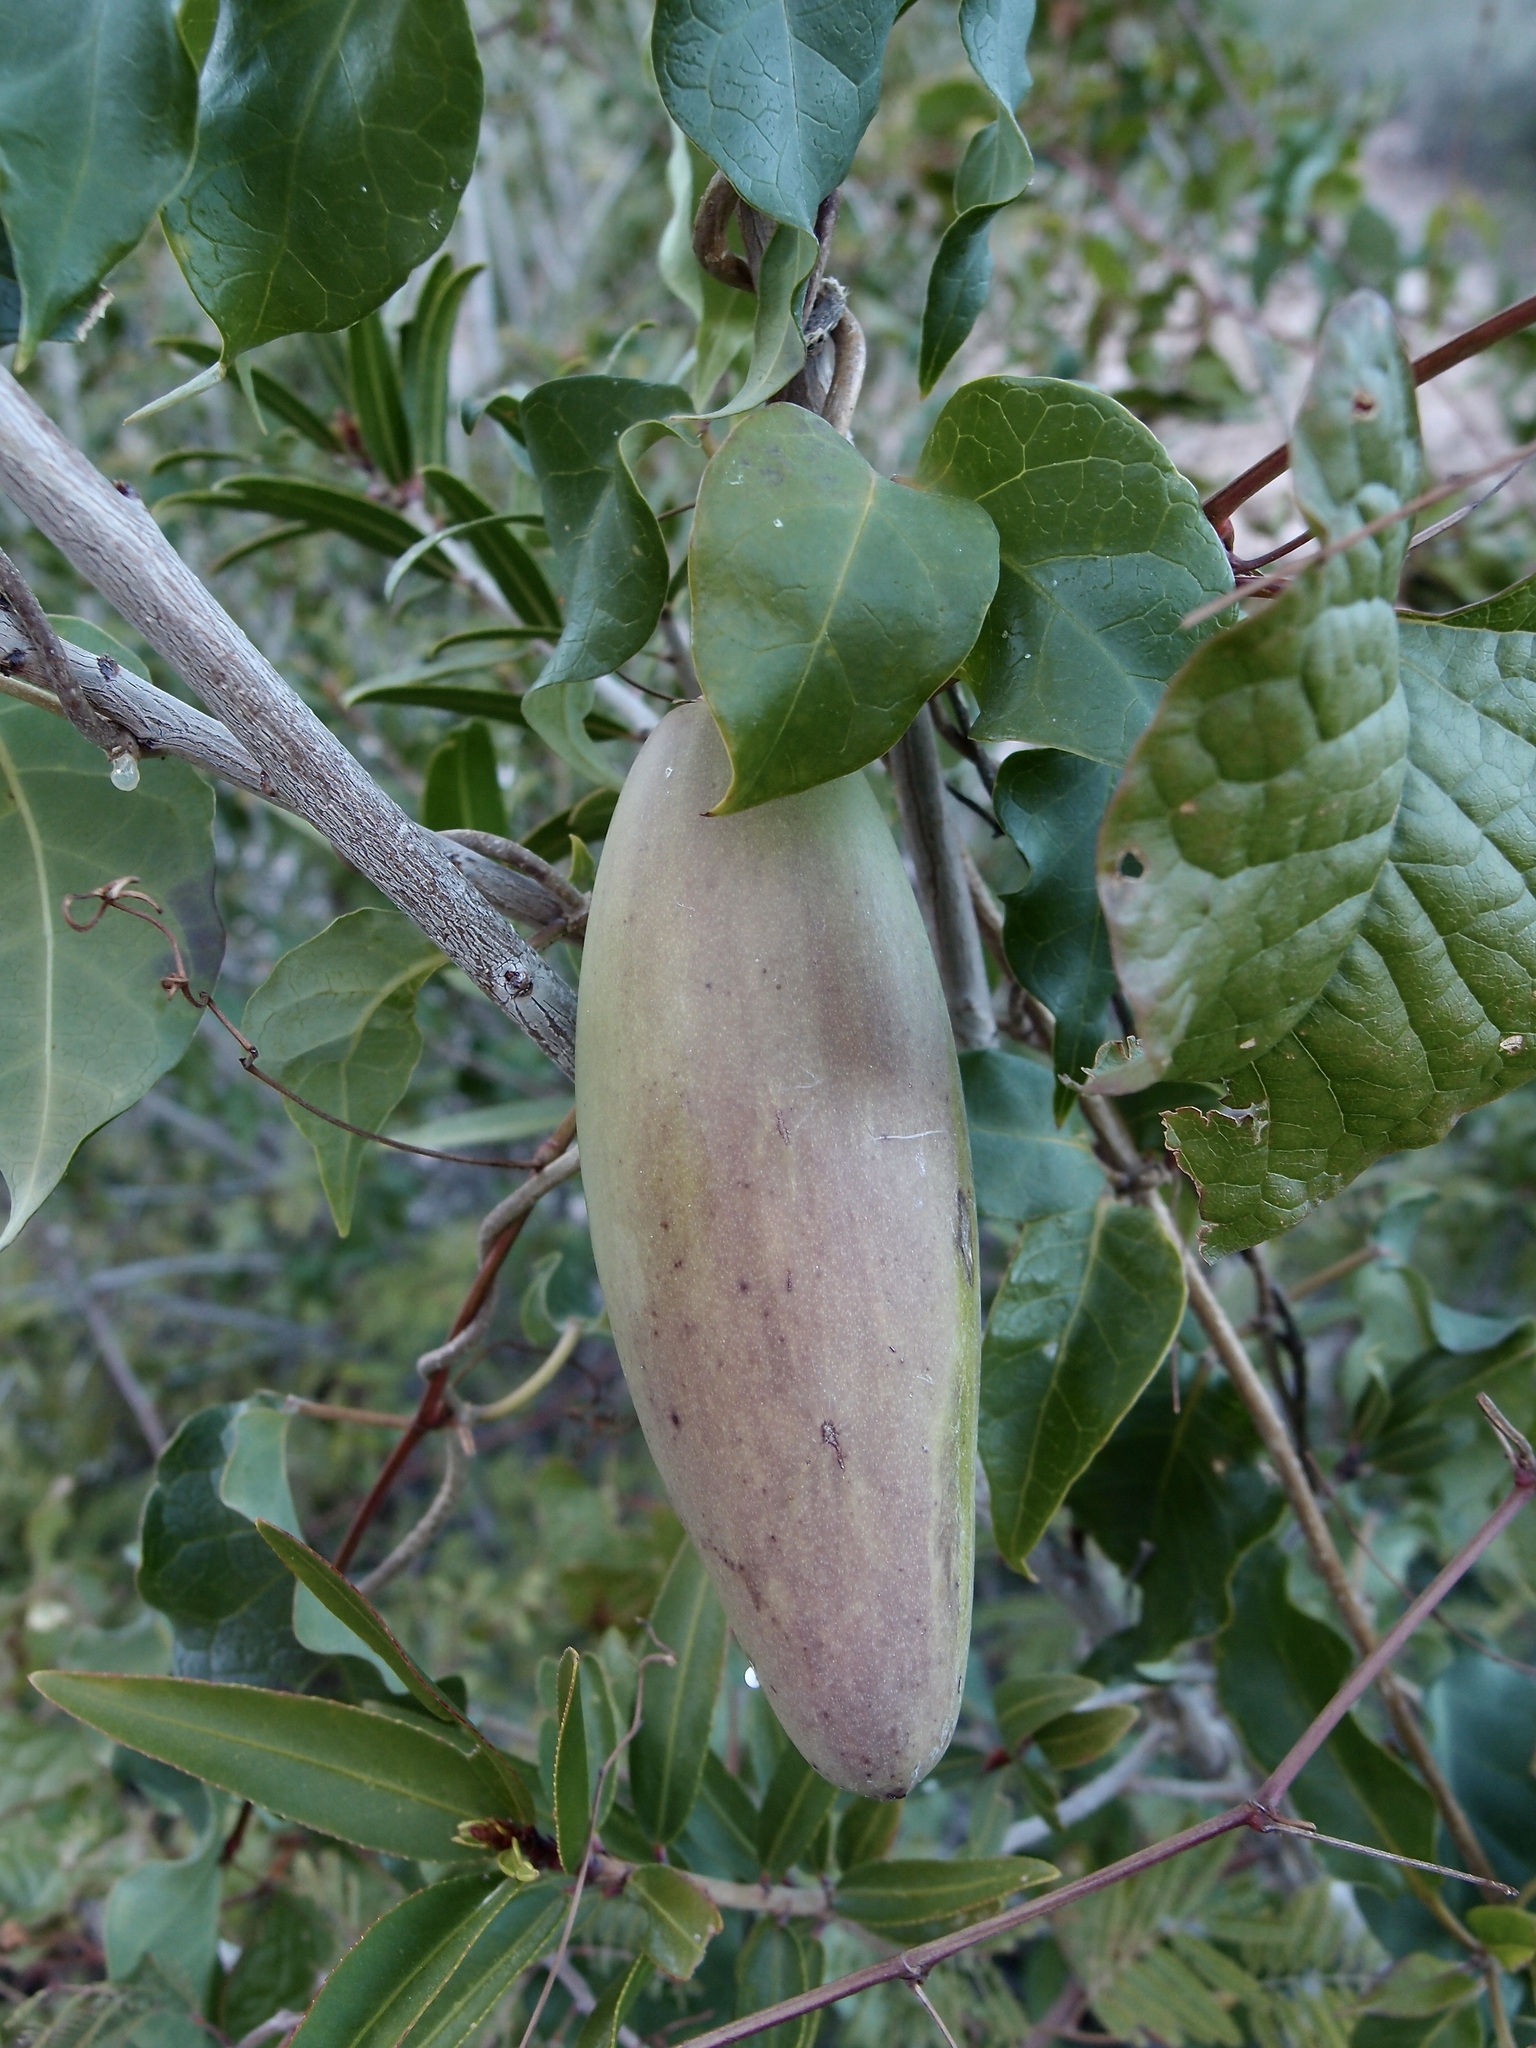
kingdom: Plantae
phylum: Tracheophyta
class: Magnoliopsida
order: Gentianales
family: Apocynaceae
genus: Ruehssia
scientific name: Ruehssia edulis
